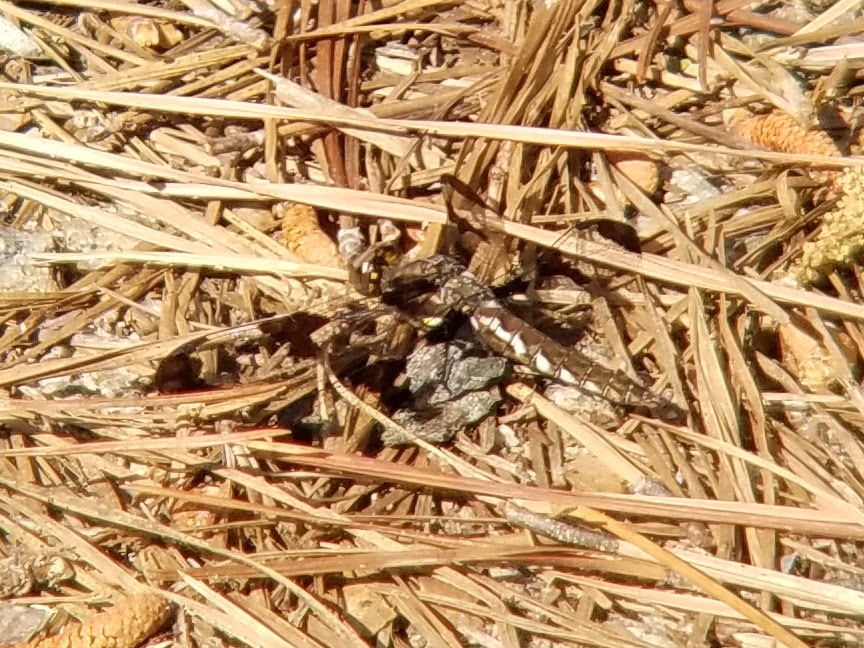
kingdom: Animalia
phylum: Arthropoda
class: Insecta
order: Odonata
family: Libellulidae
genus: Plathemis
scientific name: Plathemis lydia
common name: Common whitetail
